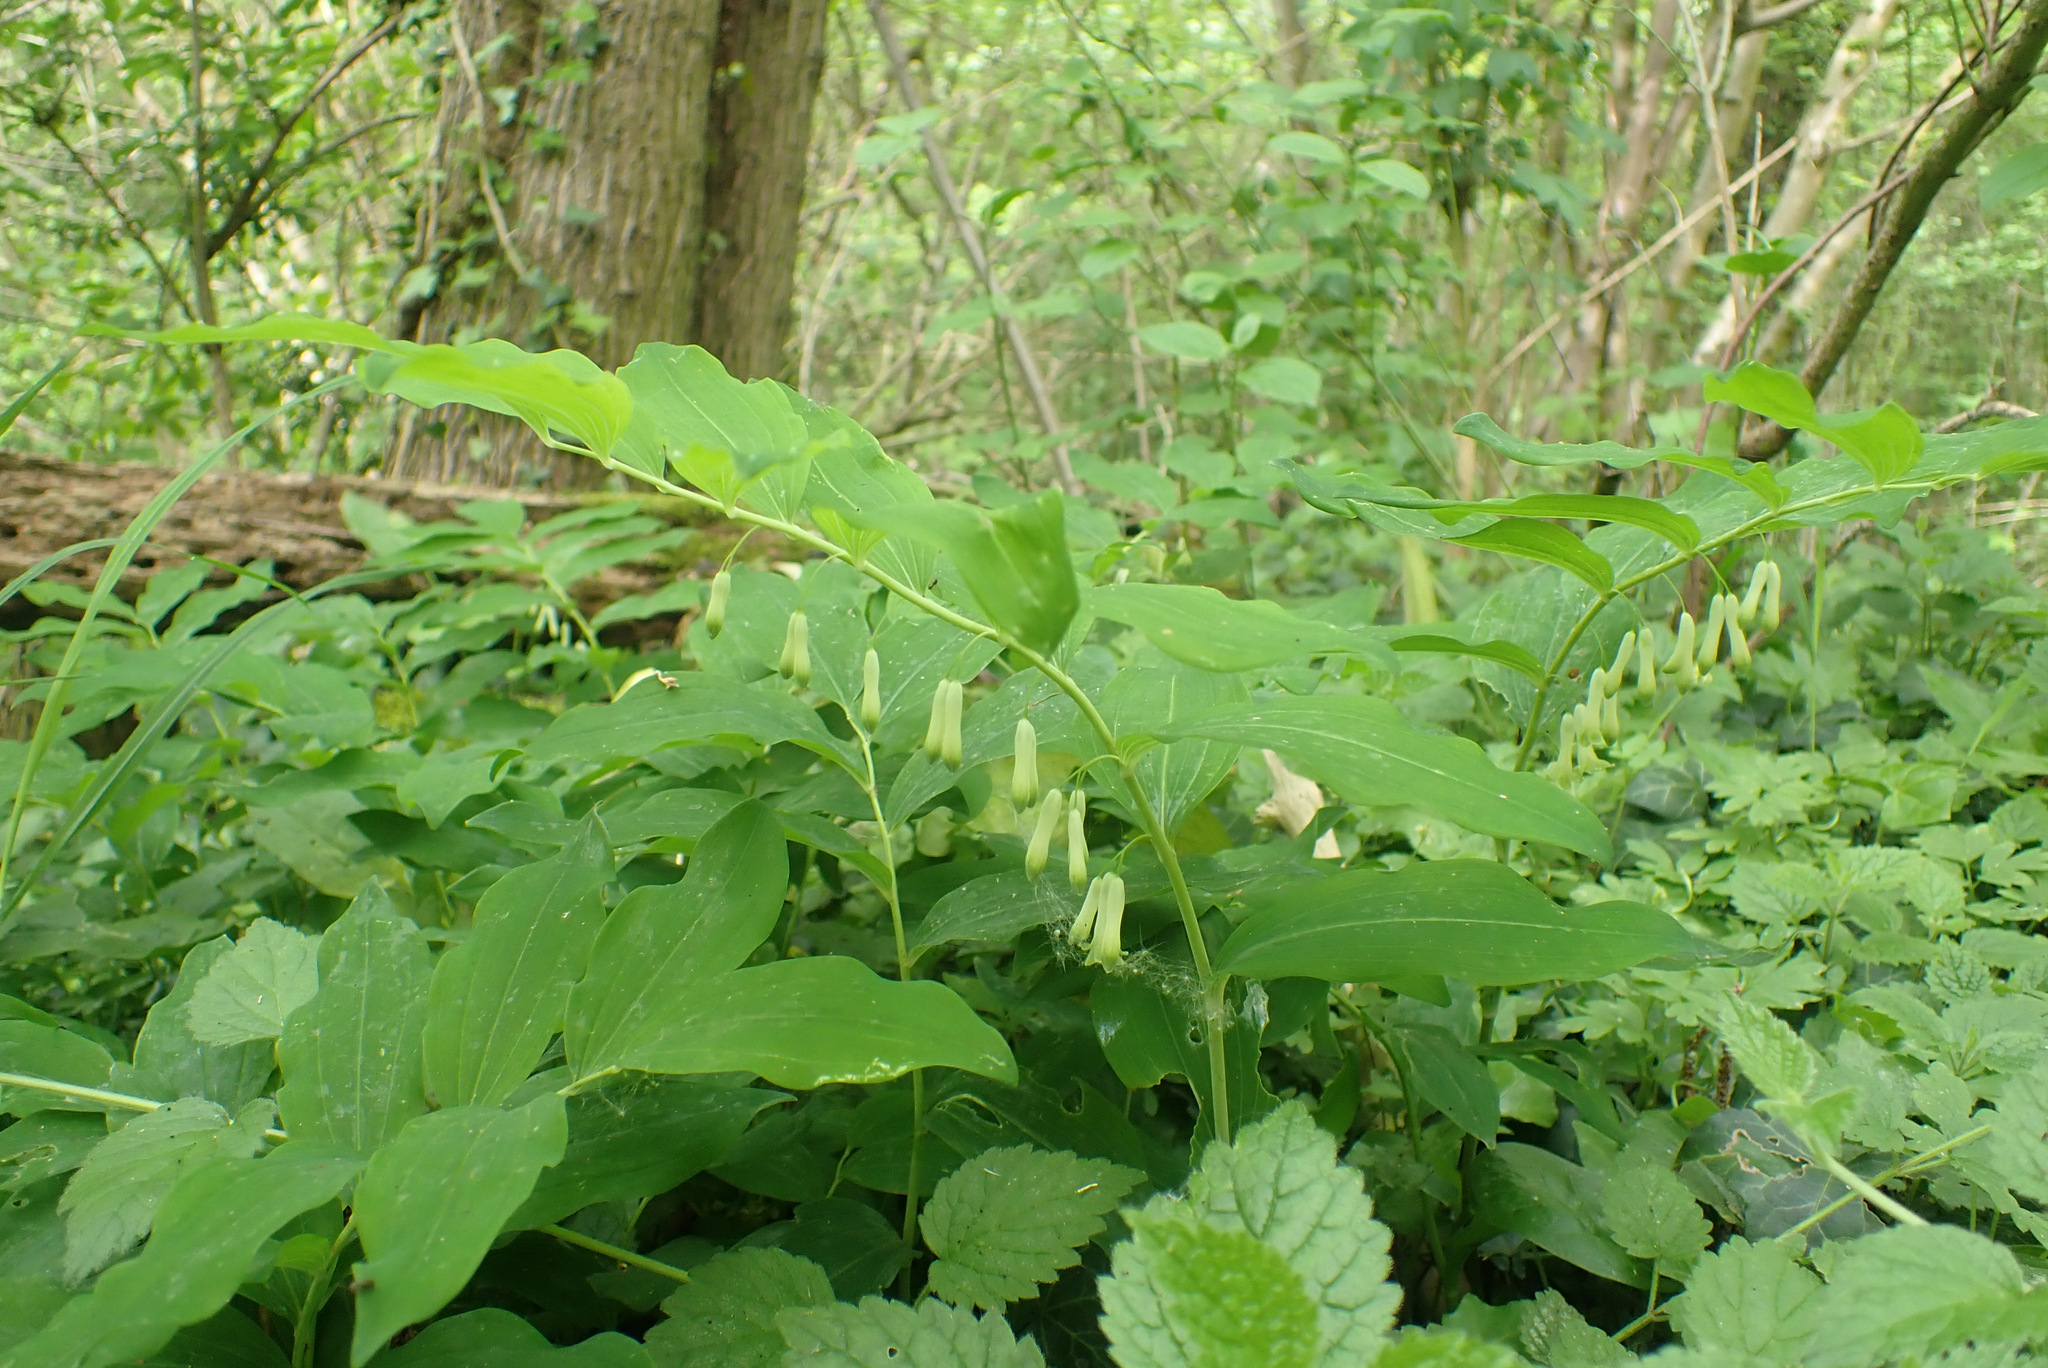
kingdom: Plantae
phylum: Tracheophyta
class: Liliopsida
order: Asparagales
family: Asparagaceae
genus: Polygonatum
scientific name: Polygonatum multiflorum
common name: Solomon's-seal
